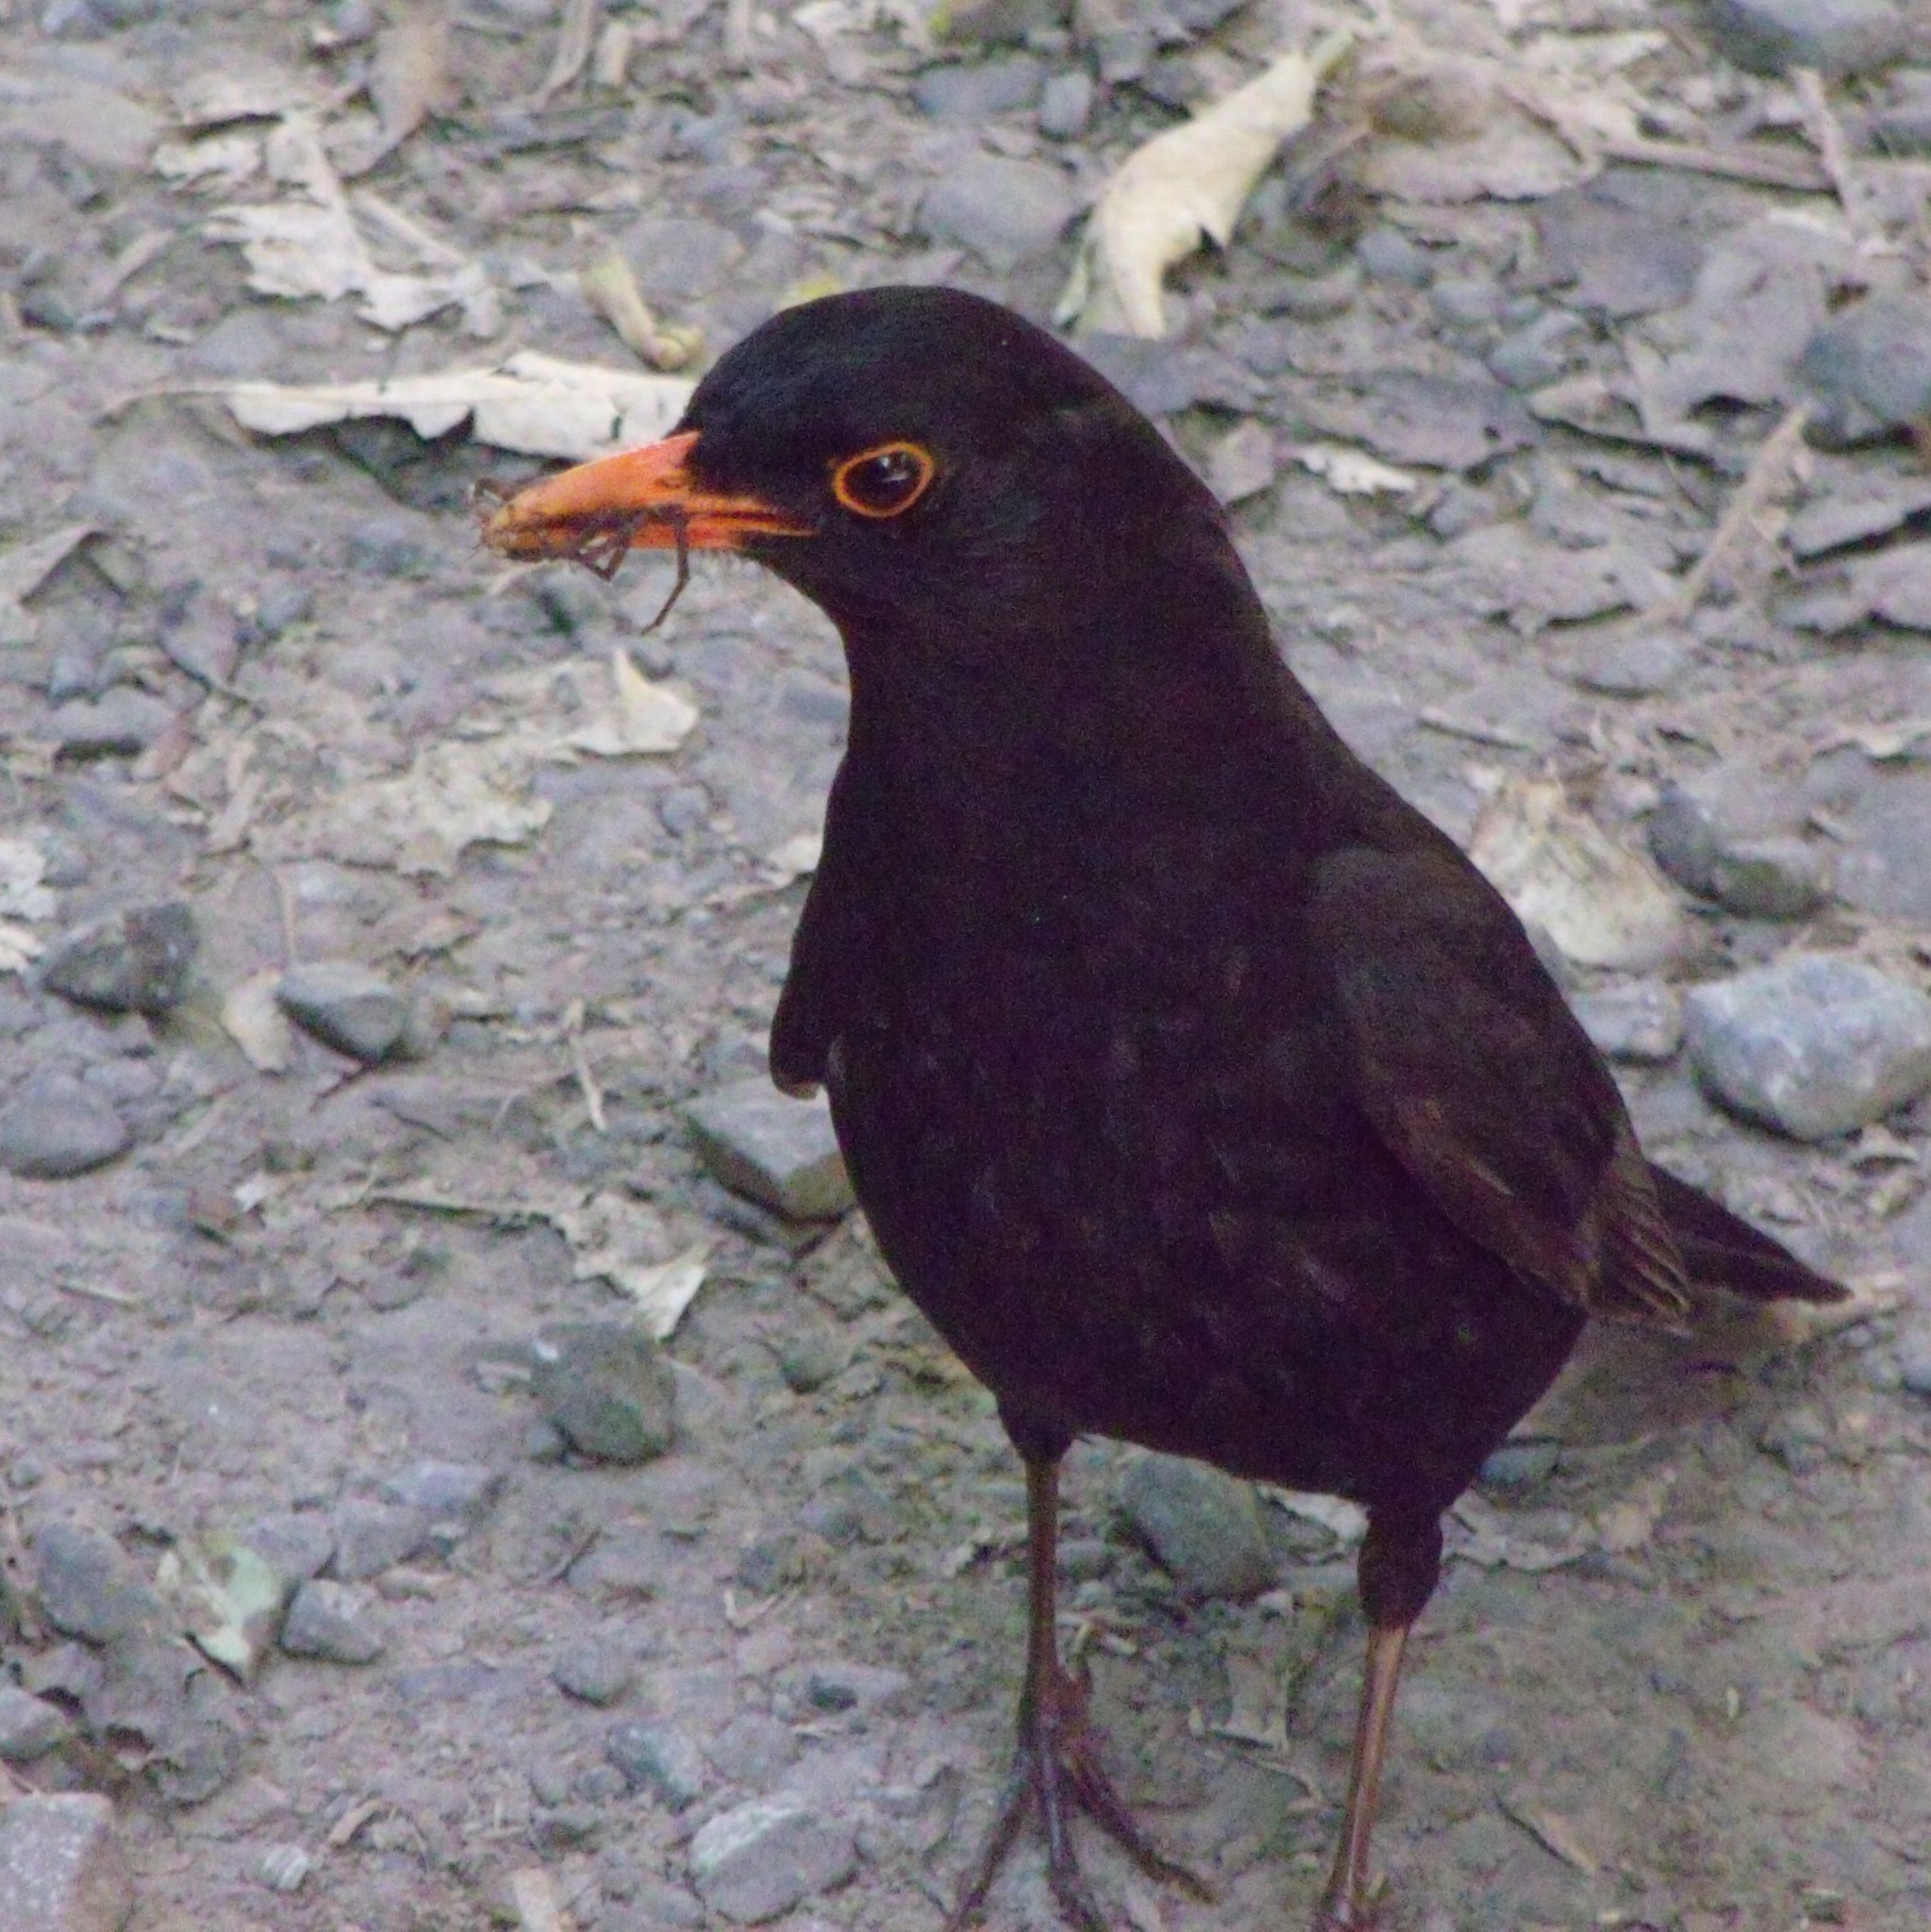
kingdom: Animalia
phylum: Chordata
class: Aves
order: Passeriformes
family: Turdidae
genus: Turdus
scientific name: Turdus merula
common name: Common blackbird
